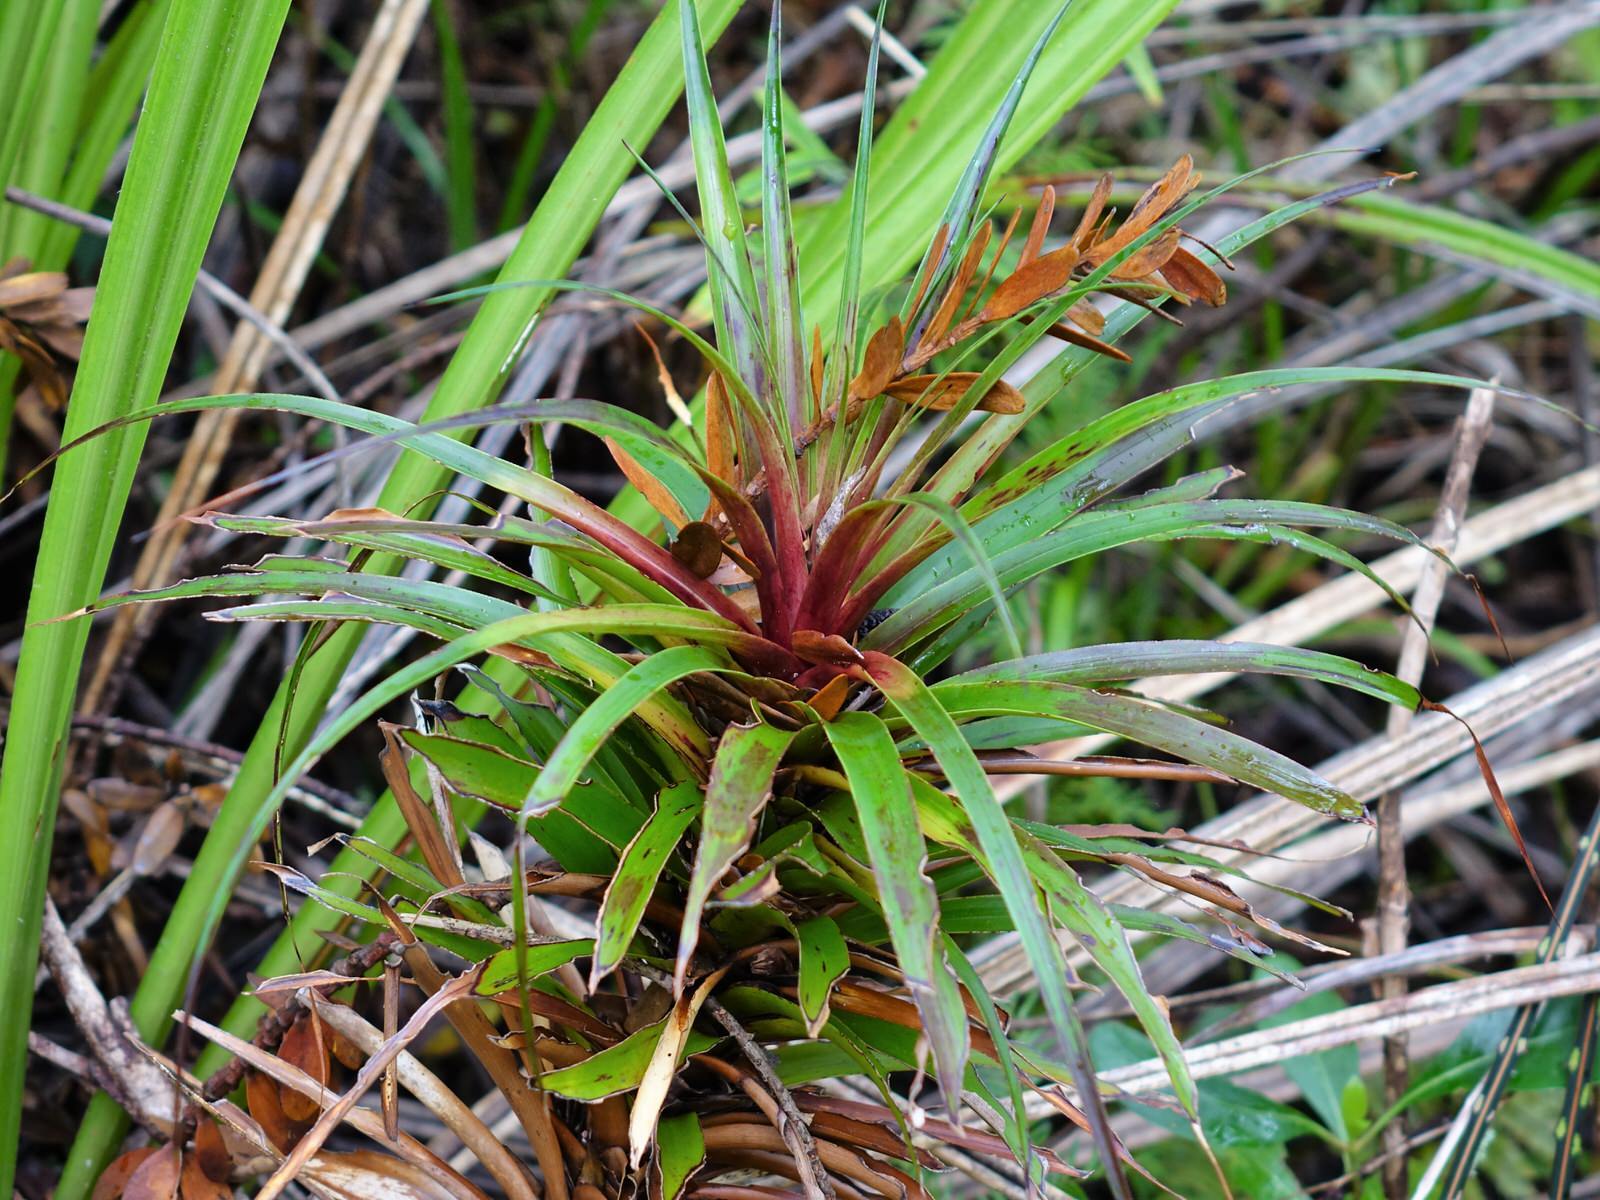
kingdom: Plantae
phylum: Tracheophyta
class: Magnoliopsida
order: Ericales
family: Ericaceae
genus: Dracophyllum
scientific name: Dracophyllum latifolium
